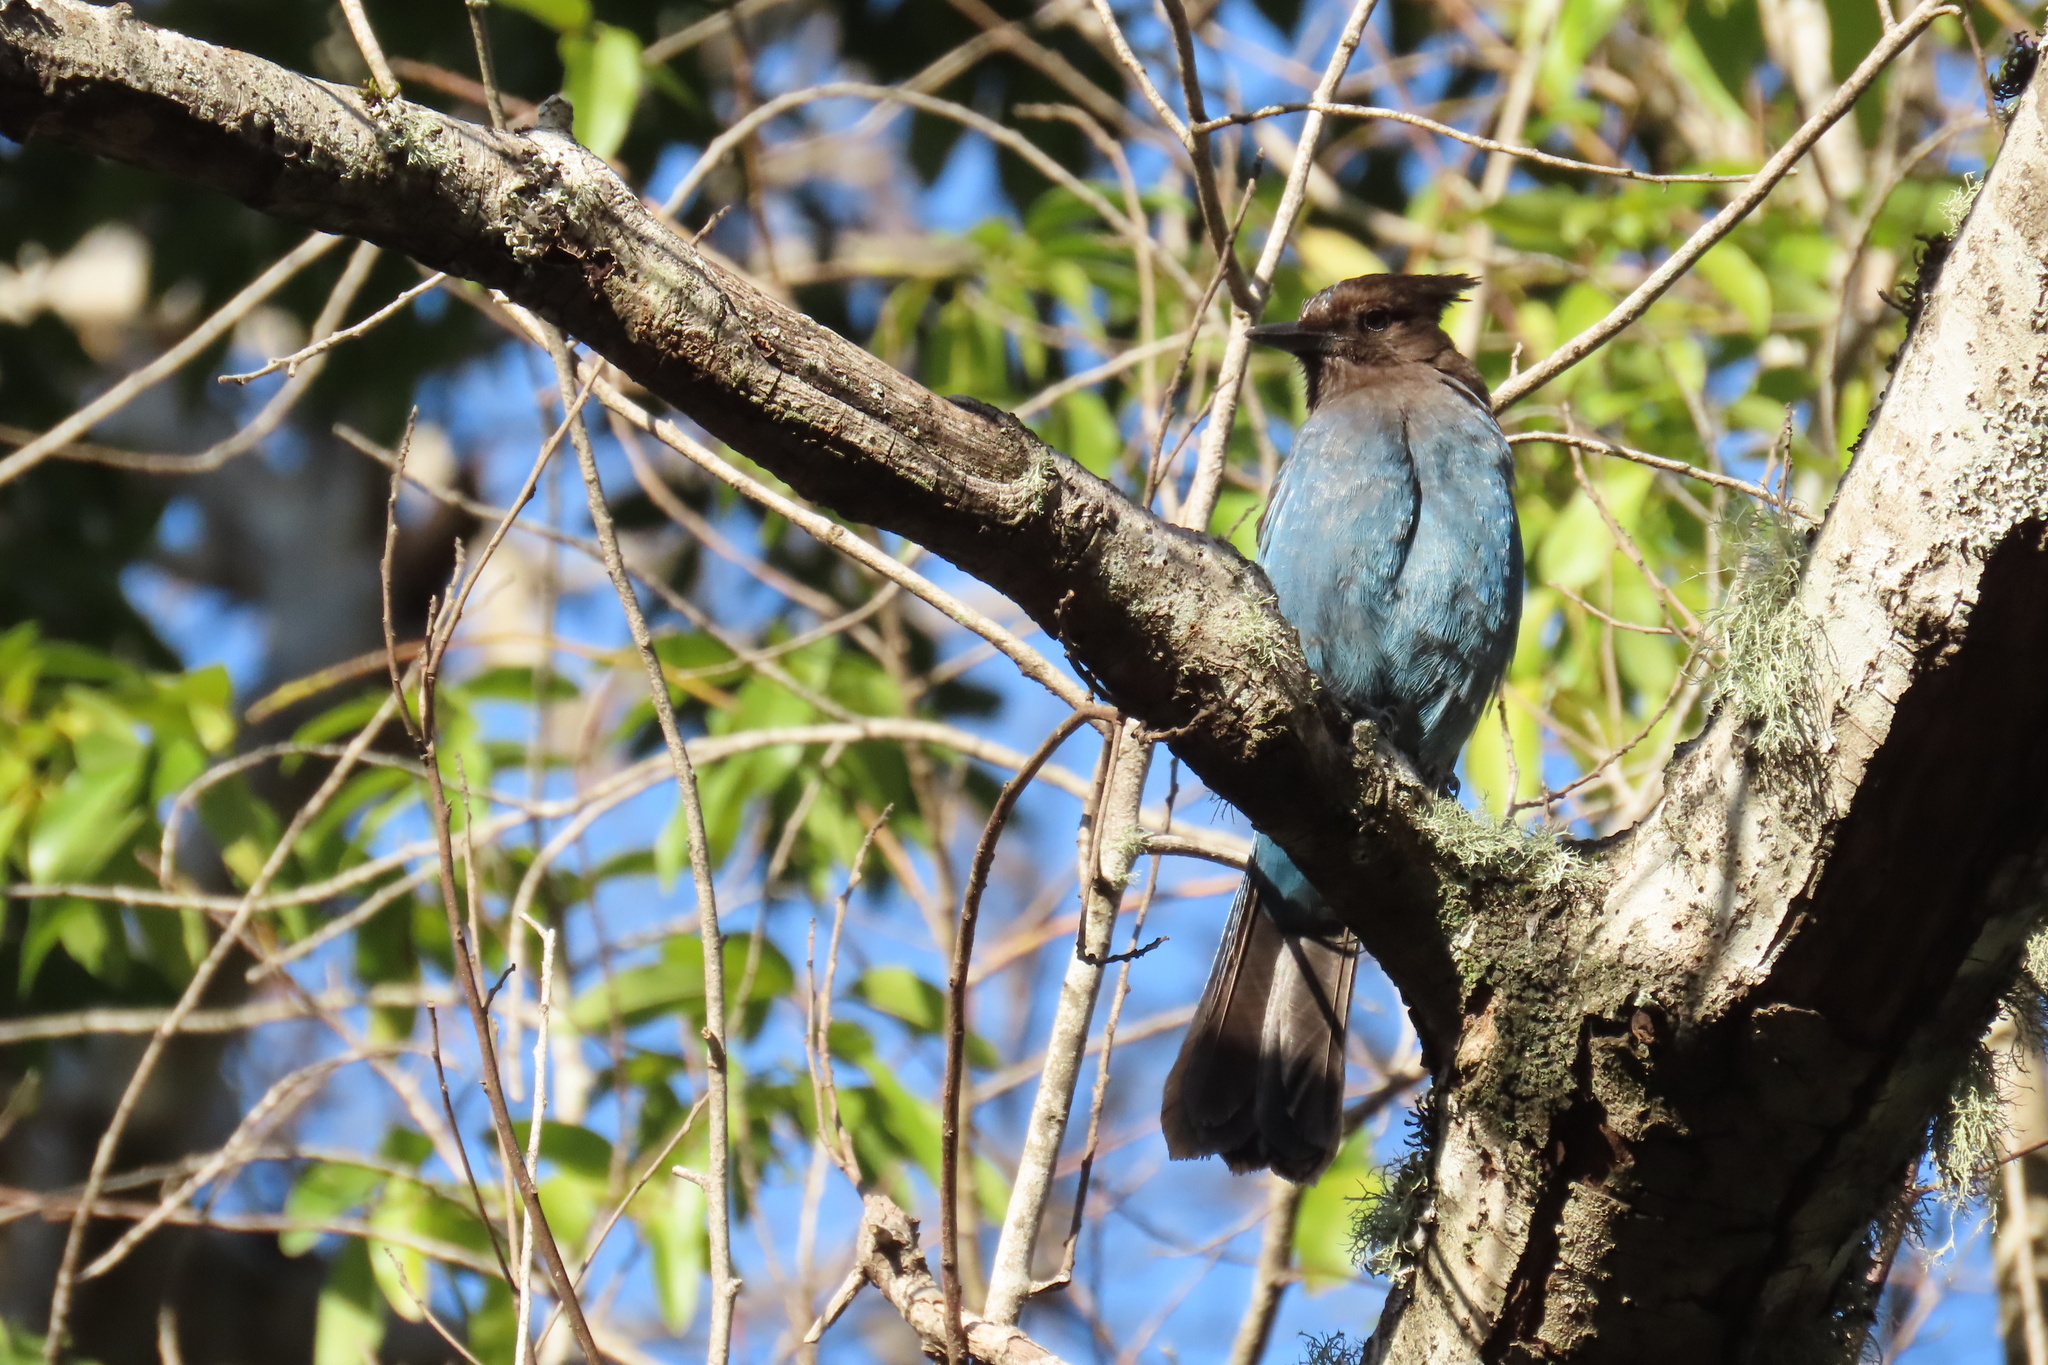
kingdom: Animalia
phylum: Chordata
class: Aves
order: Passeriformes
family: Corvidae
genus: Cyanocitta
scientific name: Cyanocitta stelleri
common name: Steller's jay
